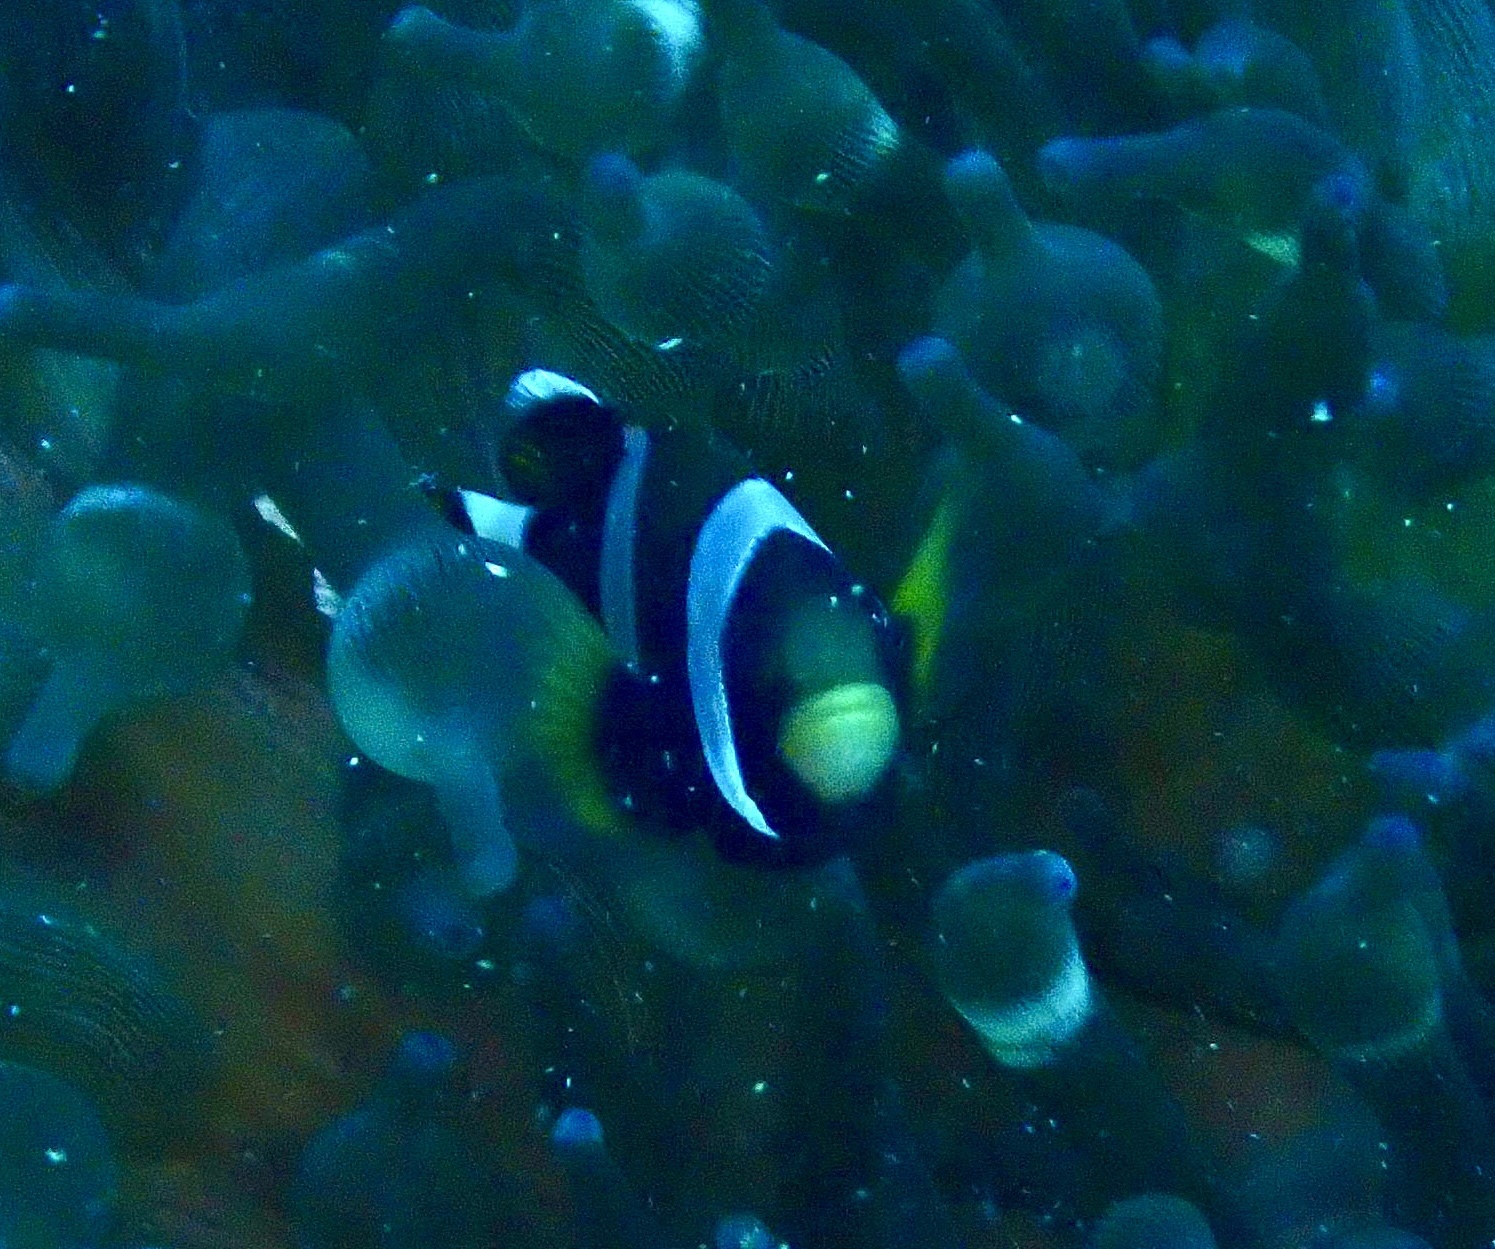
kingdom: Animalia
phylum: Chordata
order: Perciformes
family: Pomacentridae
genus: Amphiprion
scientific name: Amphiprion latezonatus
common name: Wide-band anemonefish
